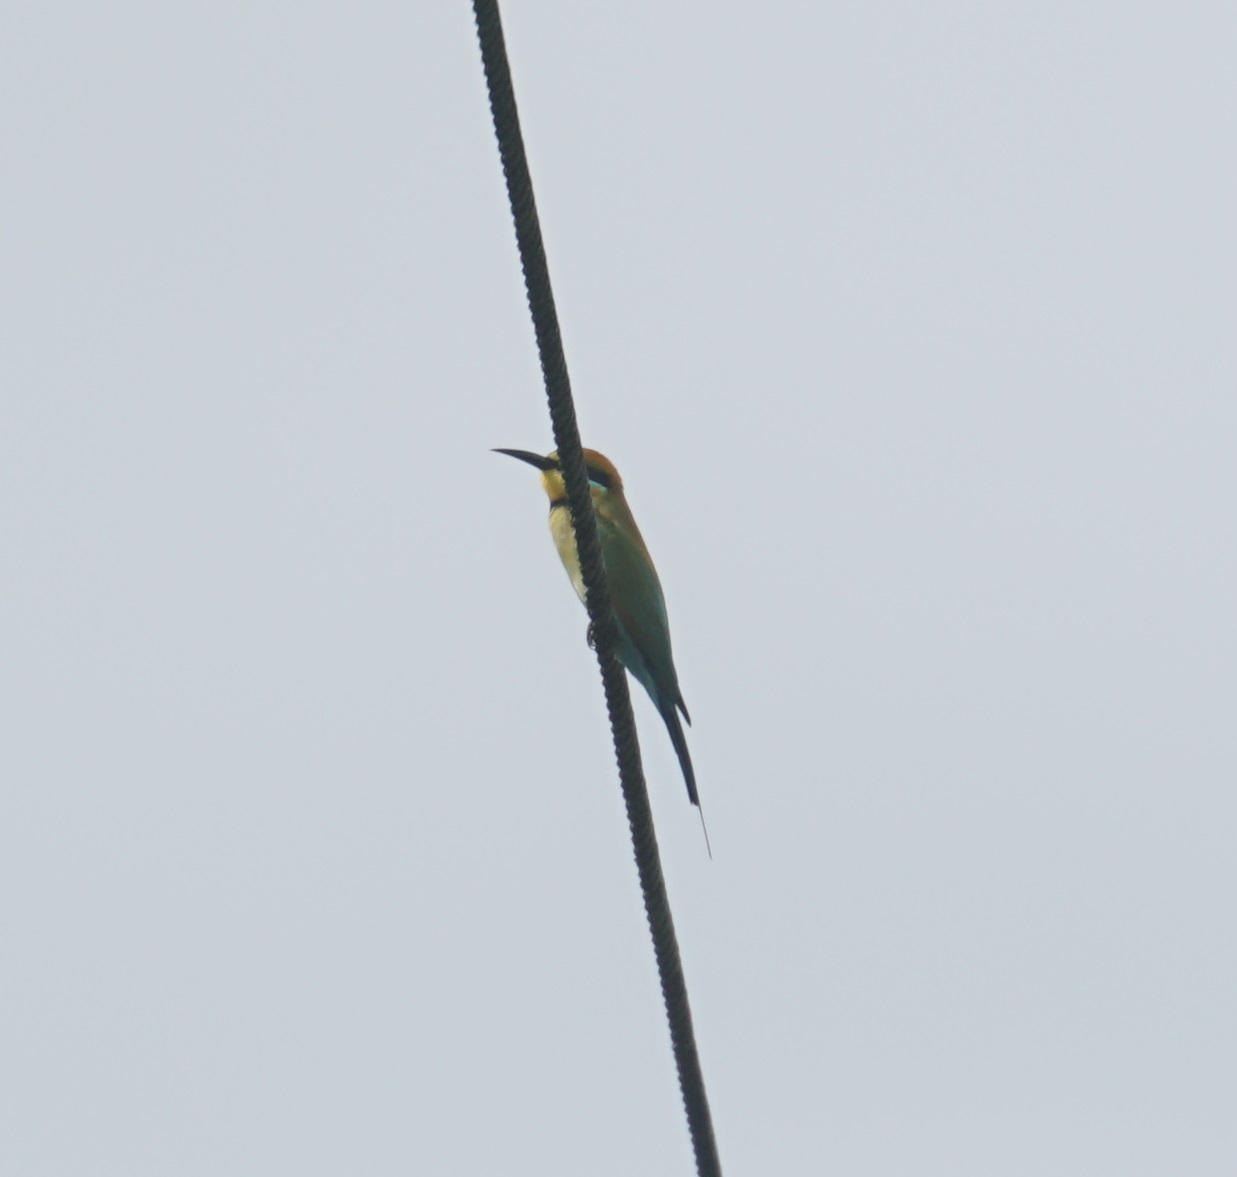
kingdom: Animalia
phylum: Chordata
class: Aves
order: Coraciiformes
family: Meropidae
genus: Merops
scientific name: Merops ornatus
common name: Rainbow bee-eater
